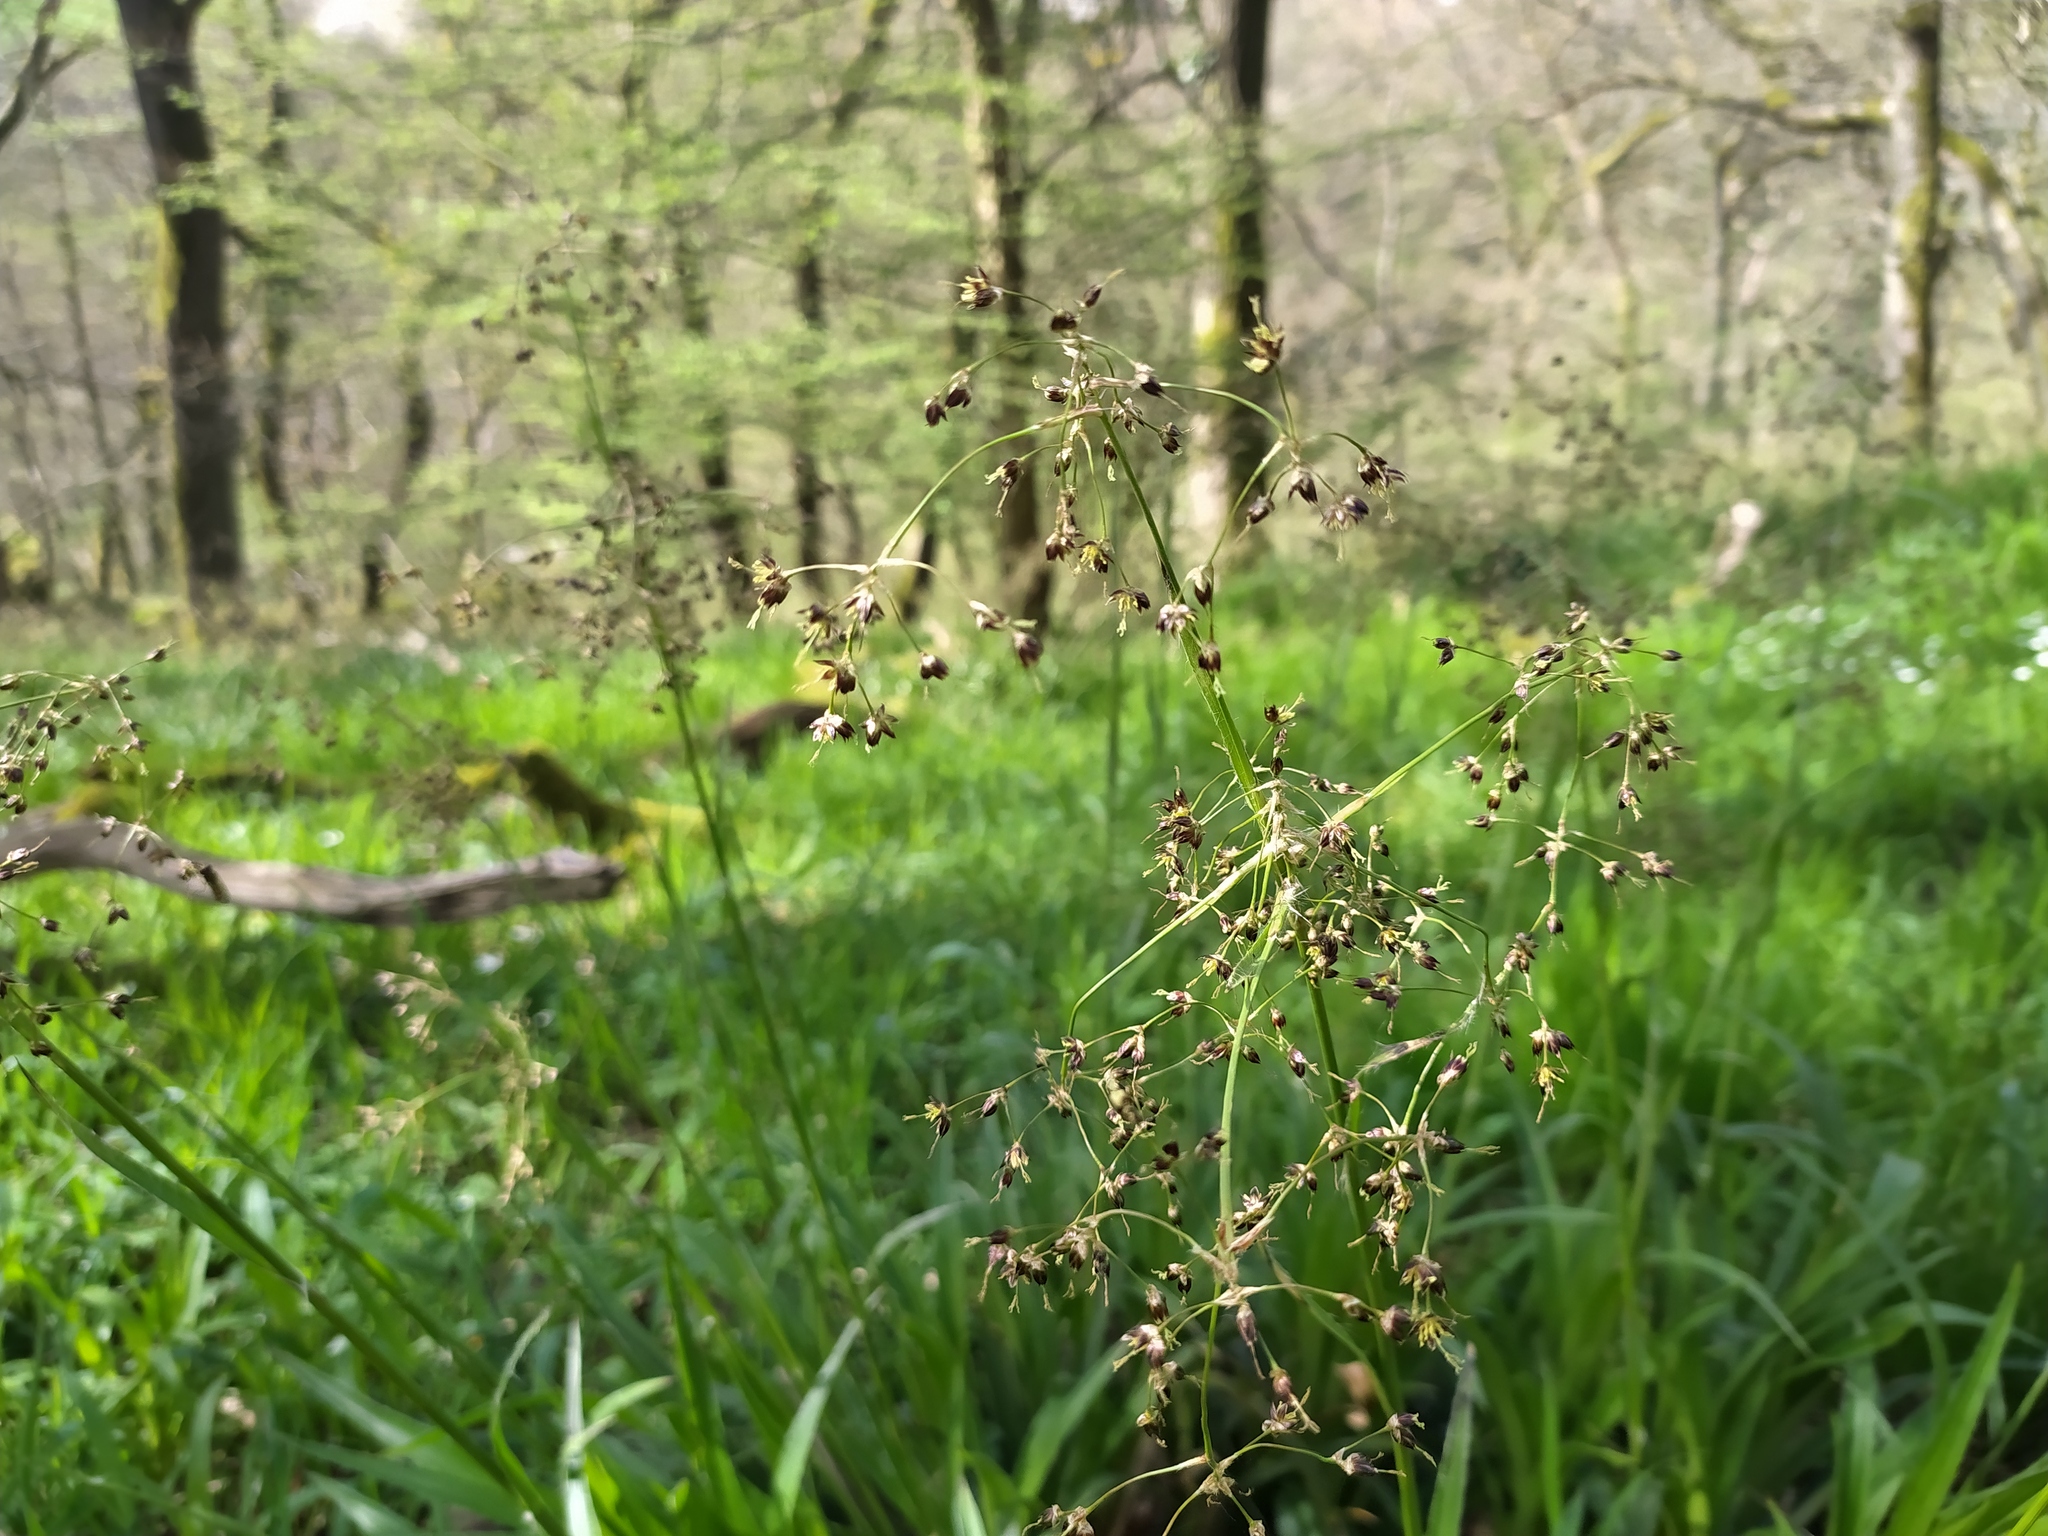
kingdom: Plantae
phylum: Tracheophyta
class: Liliopsida
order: Poales
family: Juncaceae
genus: Luzula
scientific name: Luzula sylvatica
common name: Great wood-rush
